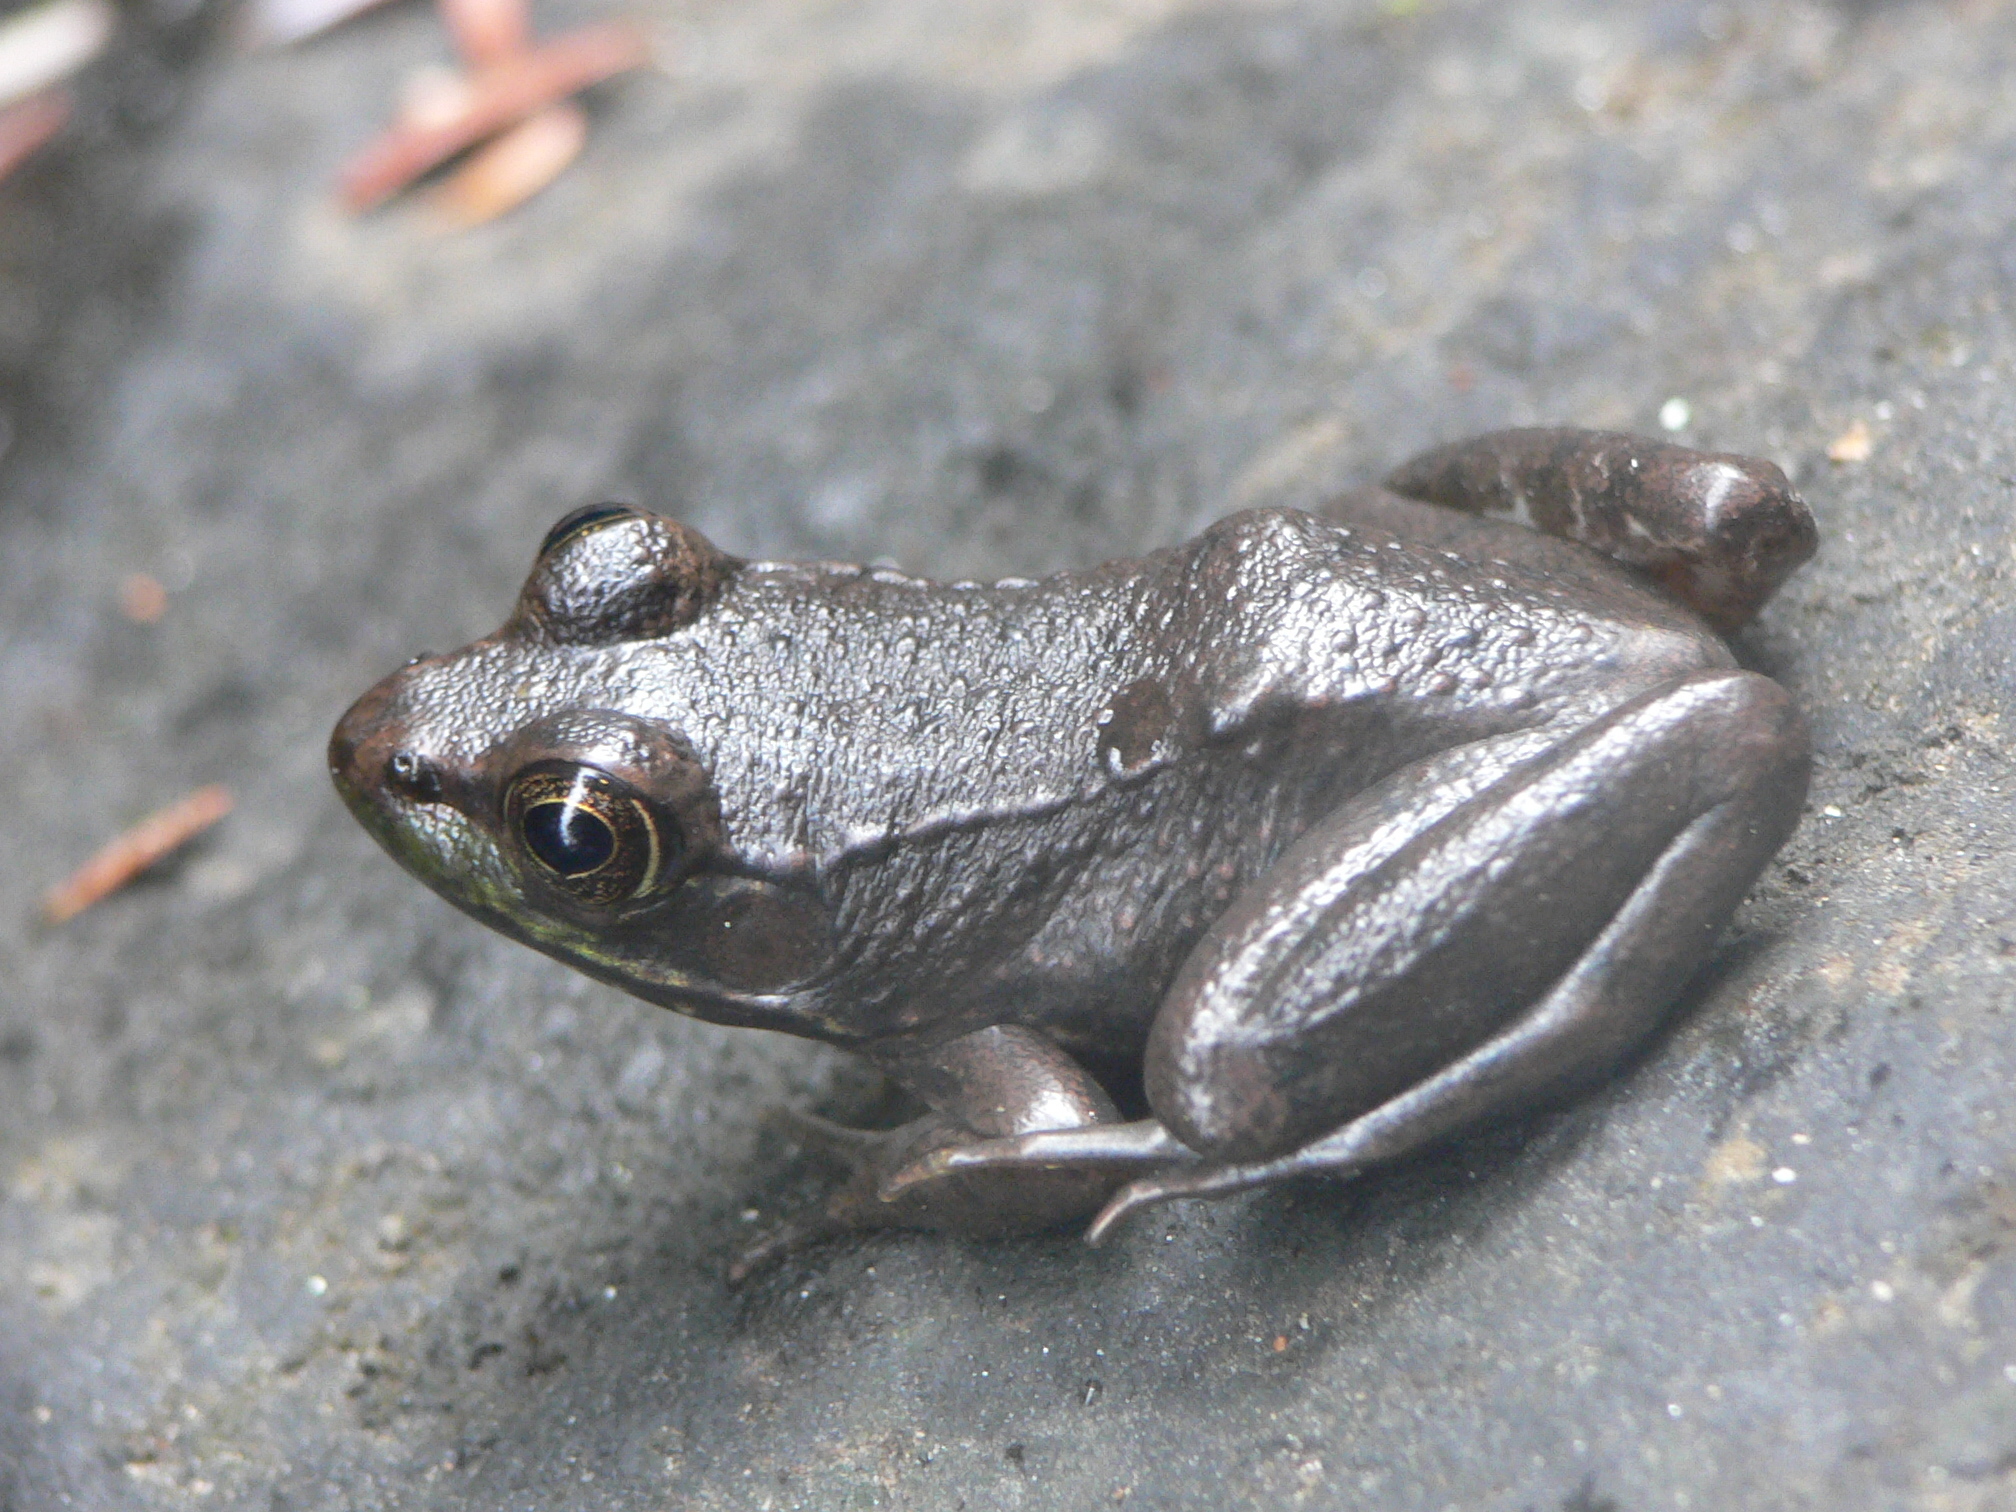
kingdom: Animalia
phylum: Chordata
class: Amphibia
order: Anura
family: Ranidae
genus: Lithobates
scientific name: Lithobates clamitans
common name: Green frog
